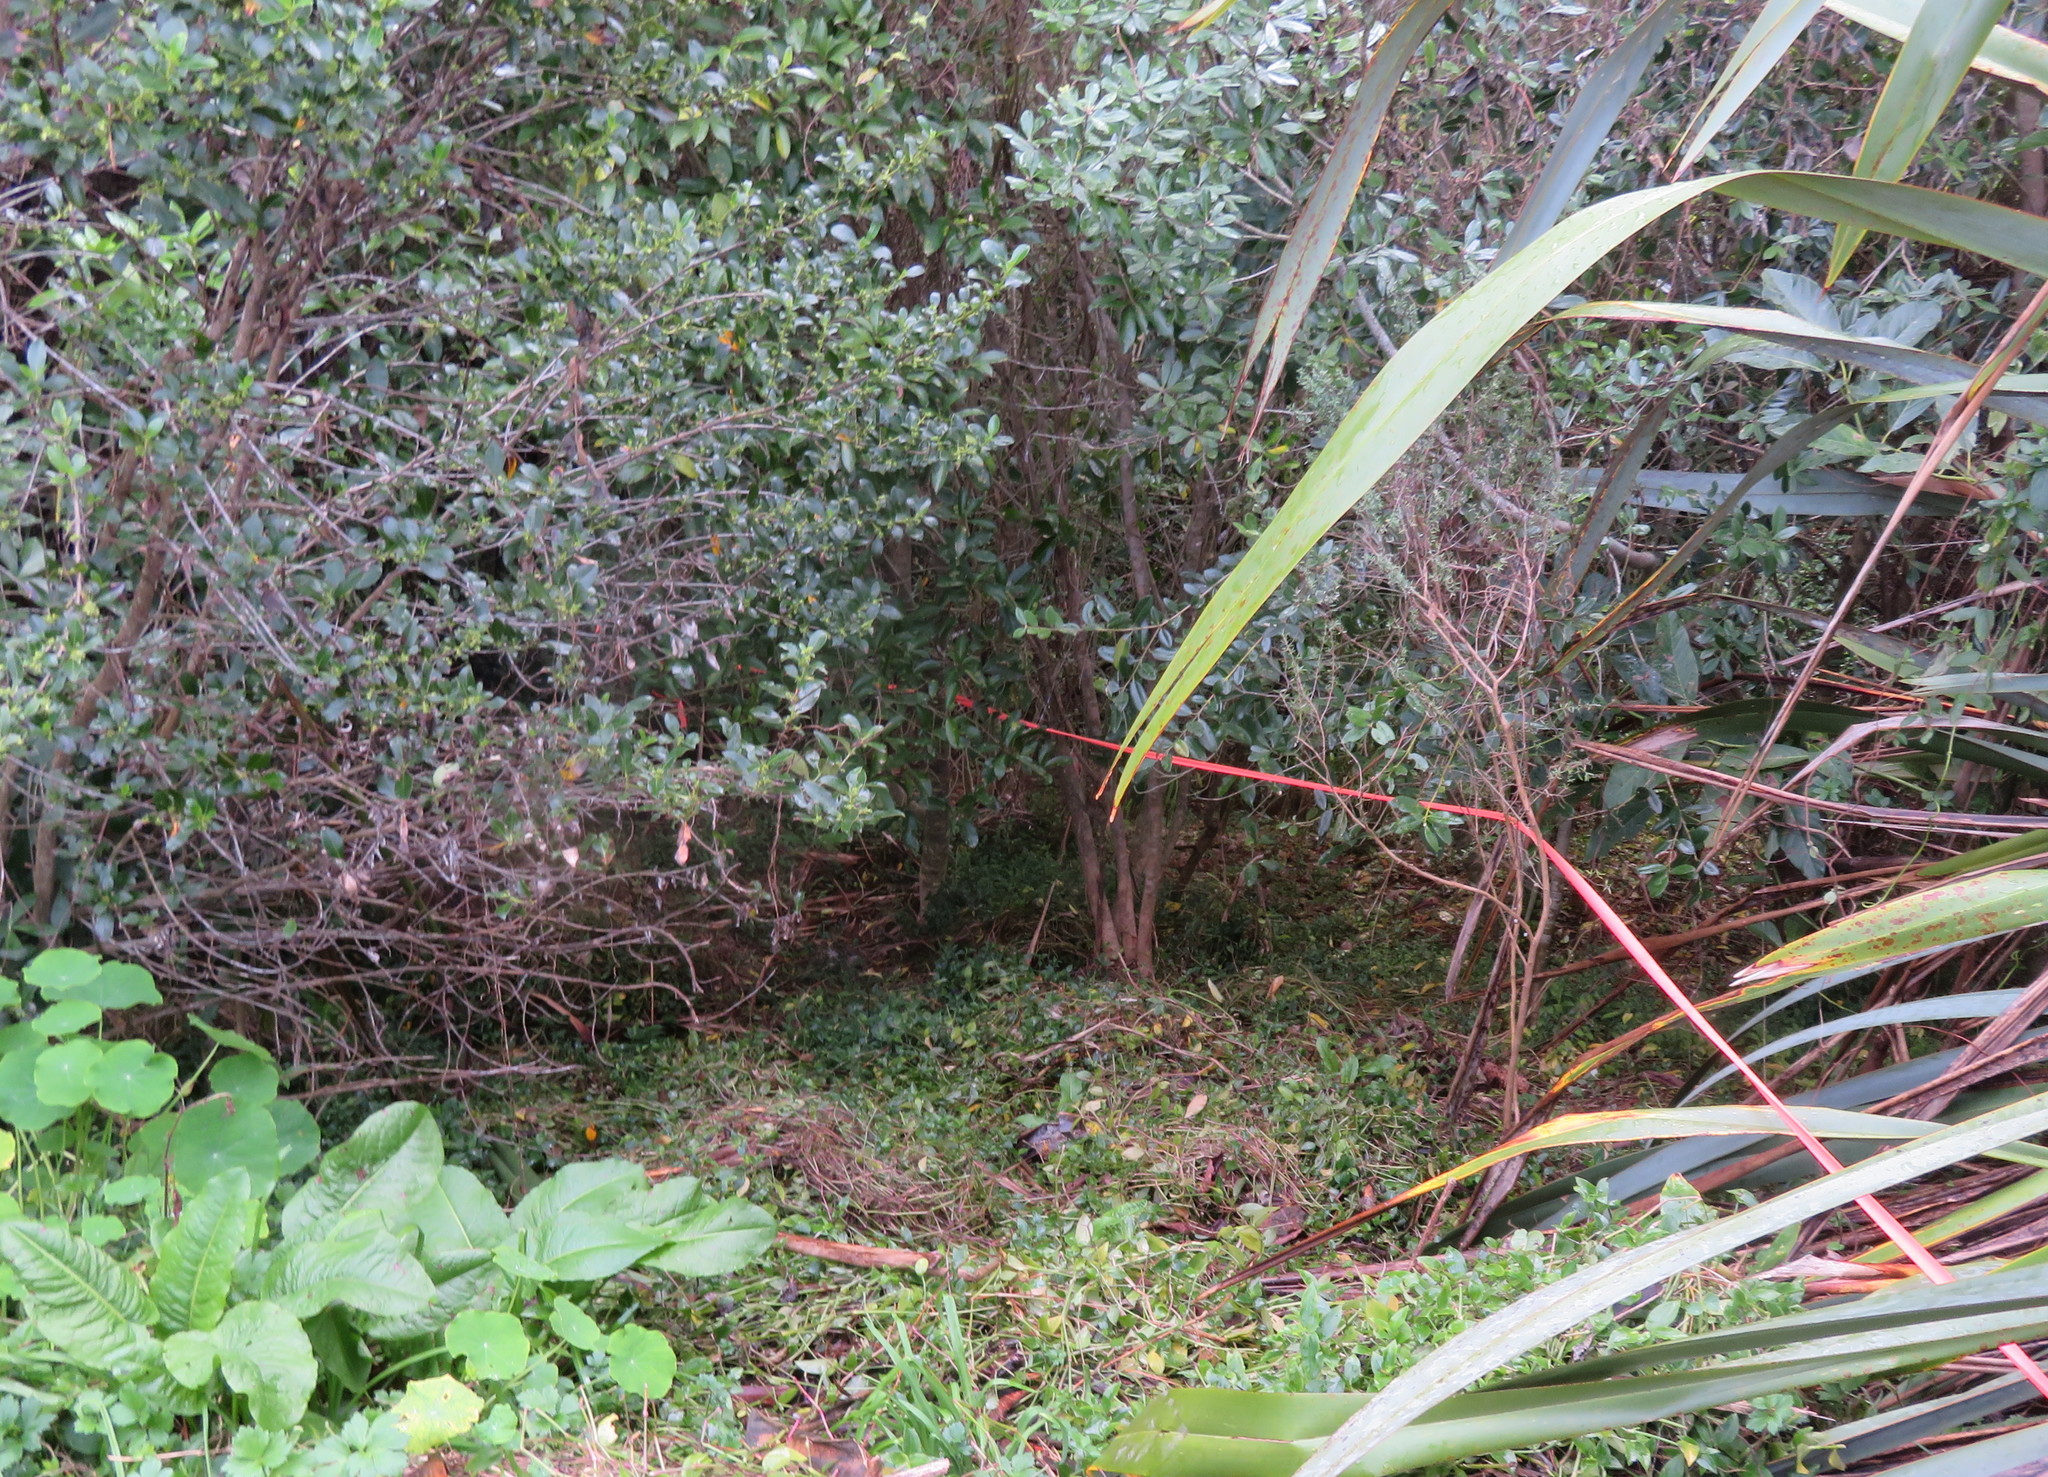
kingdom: Plantae
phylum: Tracheophyta
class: Liliopsida
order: Commelinales
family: Commelinaceae
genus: Tradescantia
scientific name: Tradescantia fluminensis
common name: Wandering-jew
